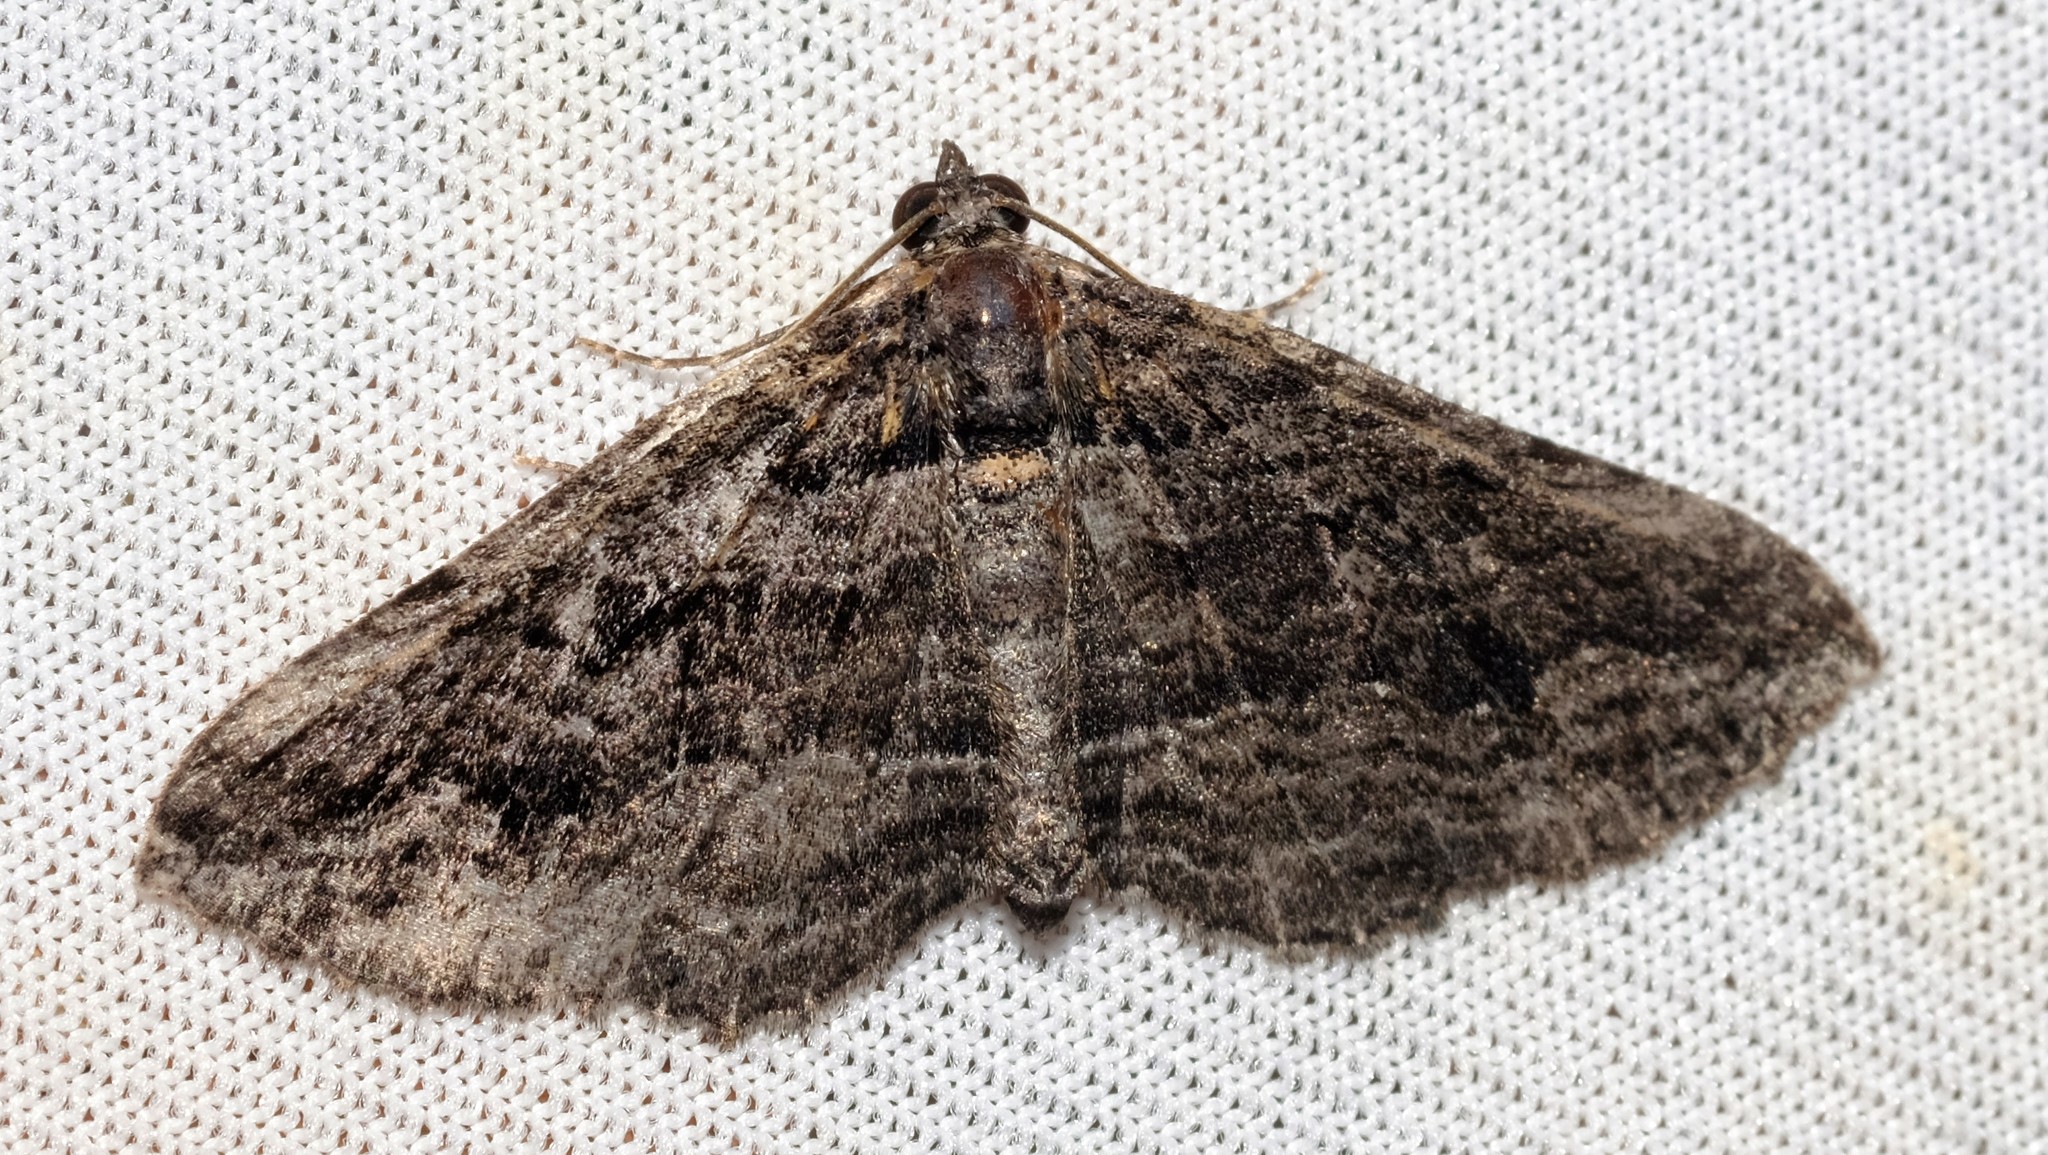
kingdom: Animalia
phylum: Arthropoda
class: Insecta
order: Lepidoptera
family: Geometridae
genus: Chrysolarentia
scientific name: Chrysolarentia severata
